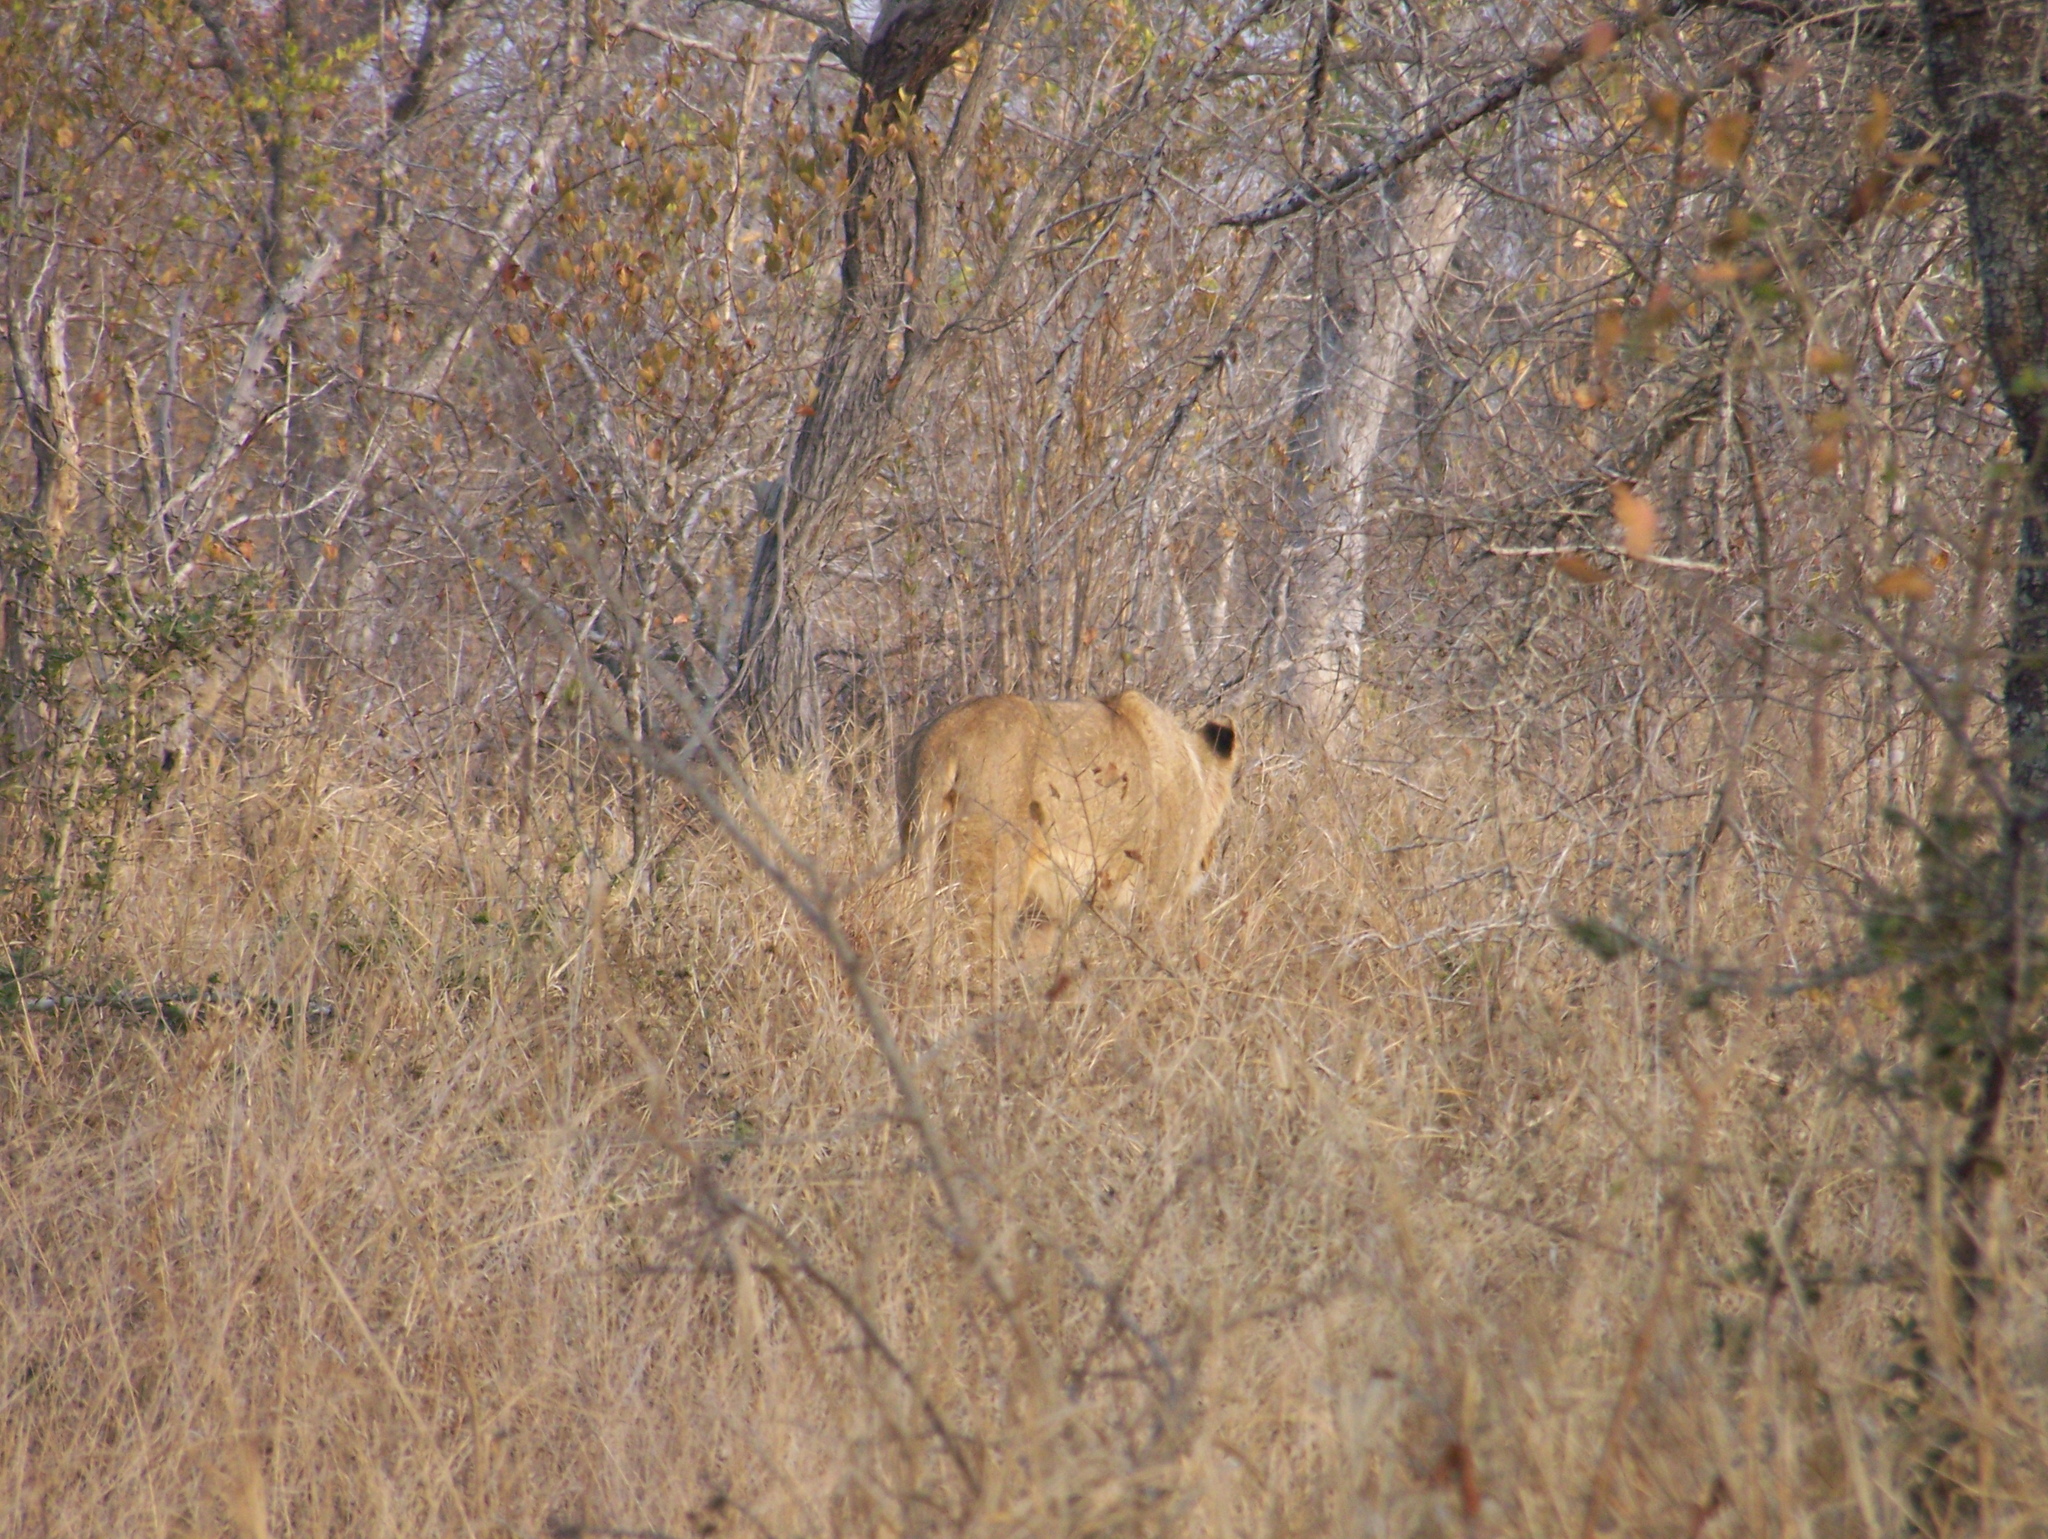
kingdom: Animalia
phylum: Chordata
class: Mammalia
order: Carnivora
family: Felidae
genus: Panthera
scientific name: Panthera leo
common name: Lion
